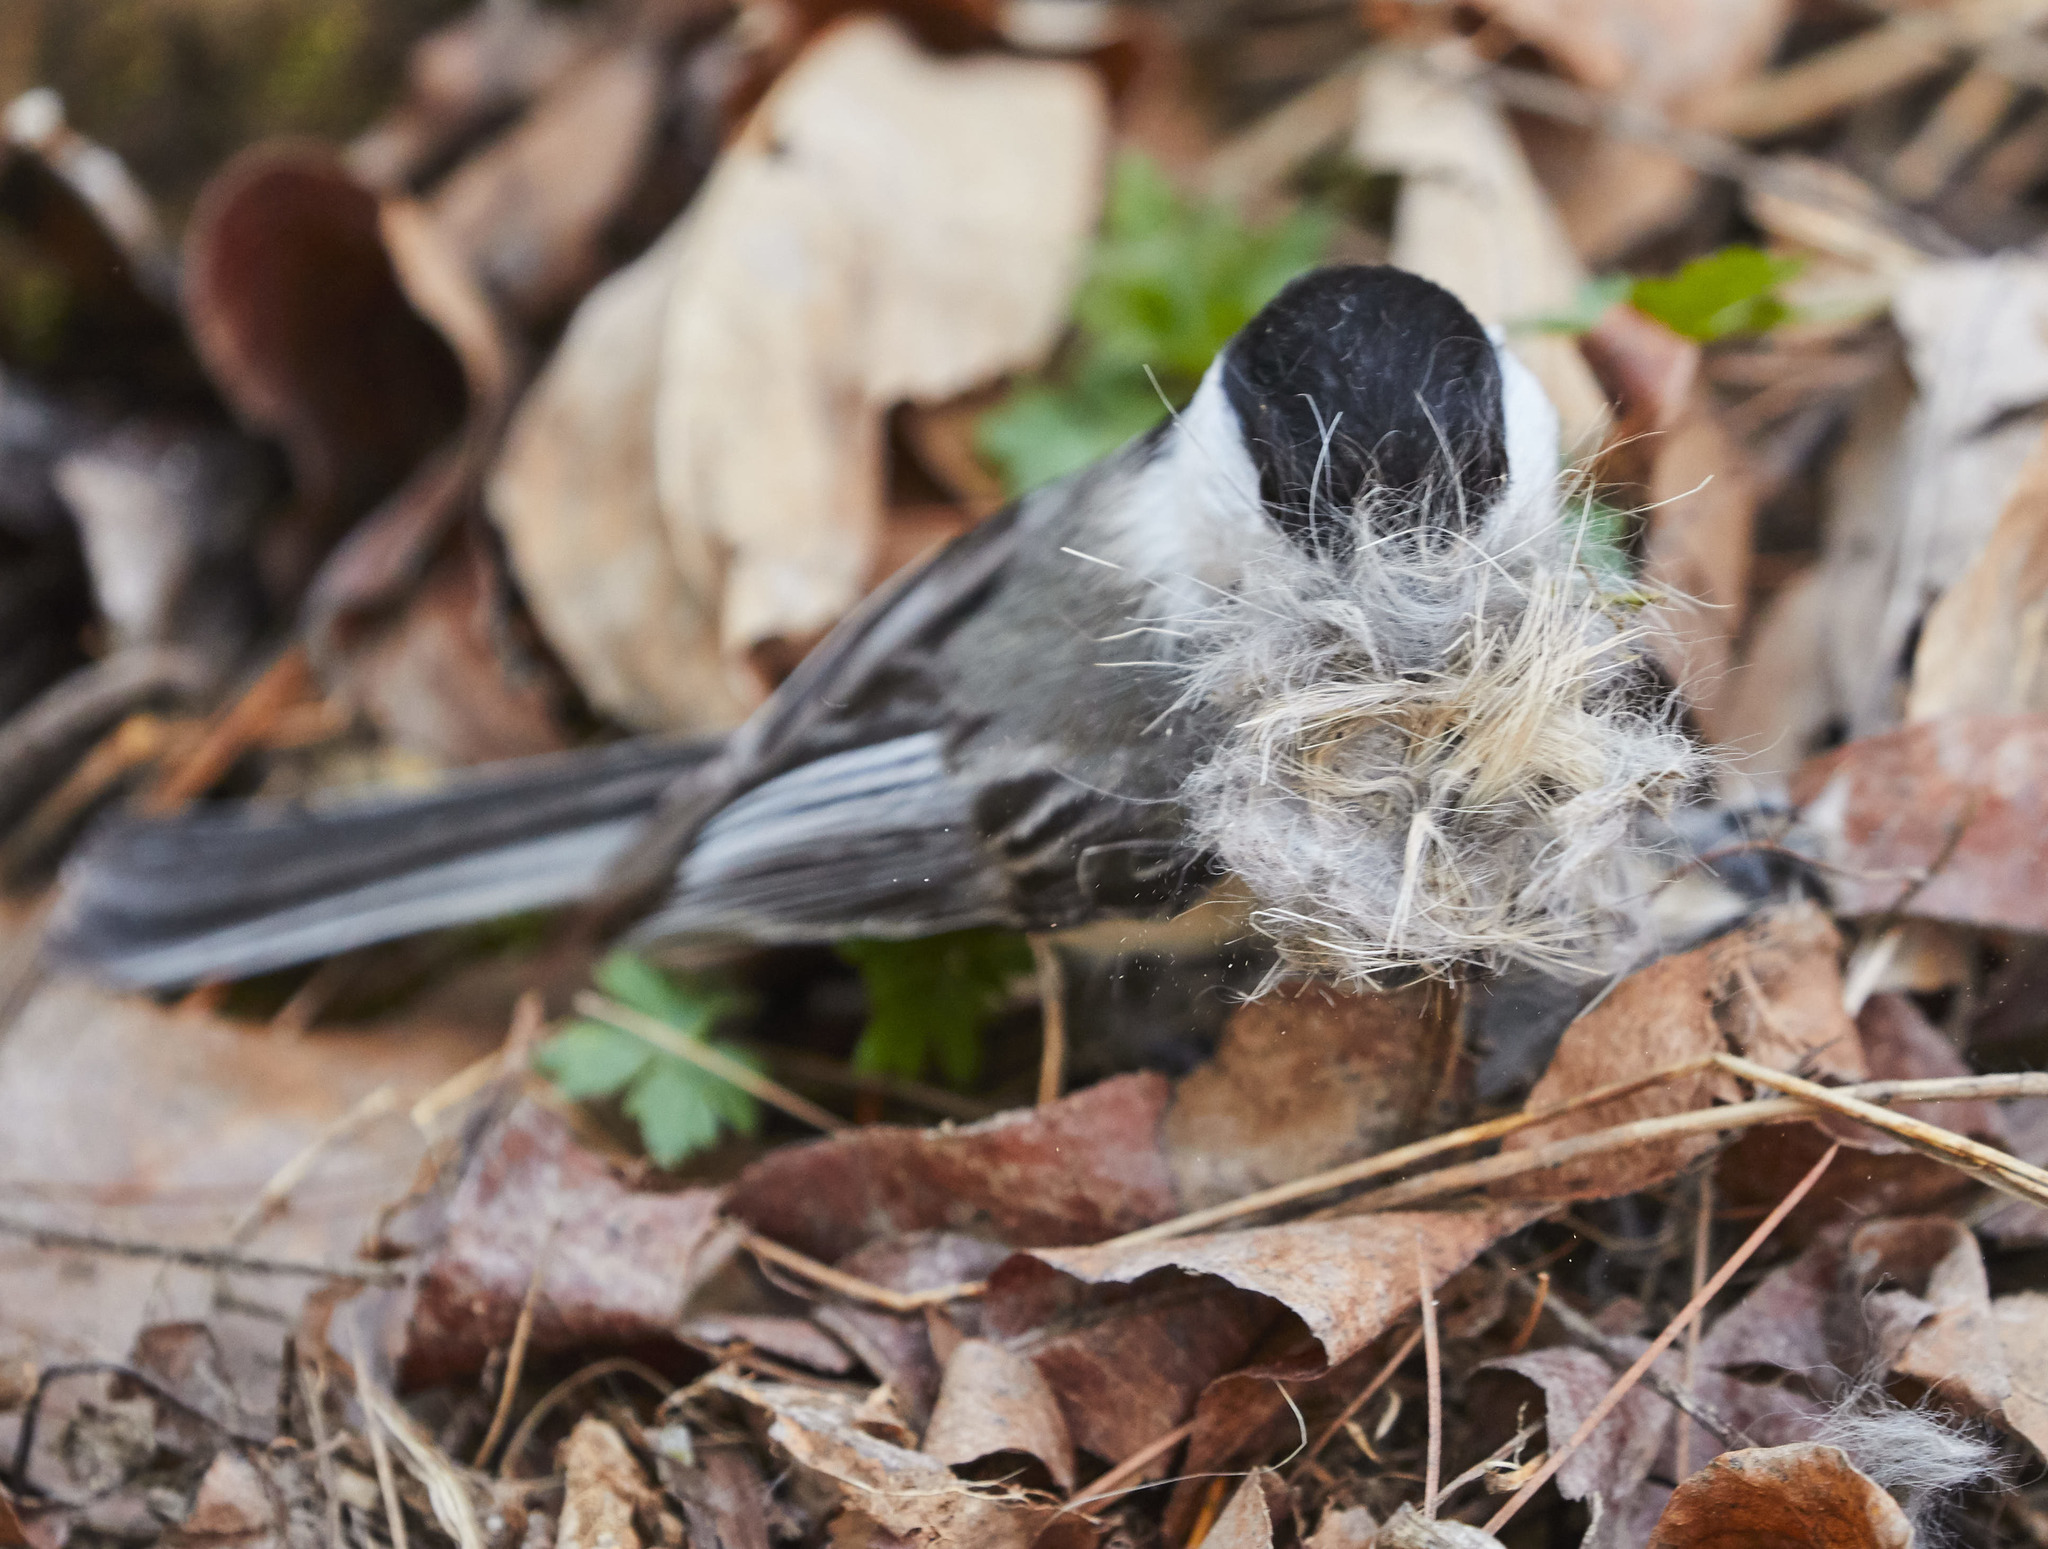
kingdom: Animalia
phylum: Chordata
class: Aves
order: Passeriformes
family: Paridae
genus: Poecile
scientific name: Poecile atricapillus
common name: Black-capped chickadee
